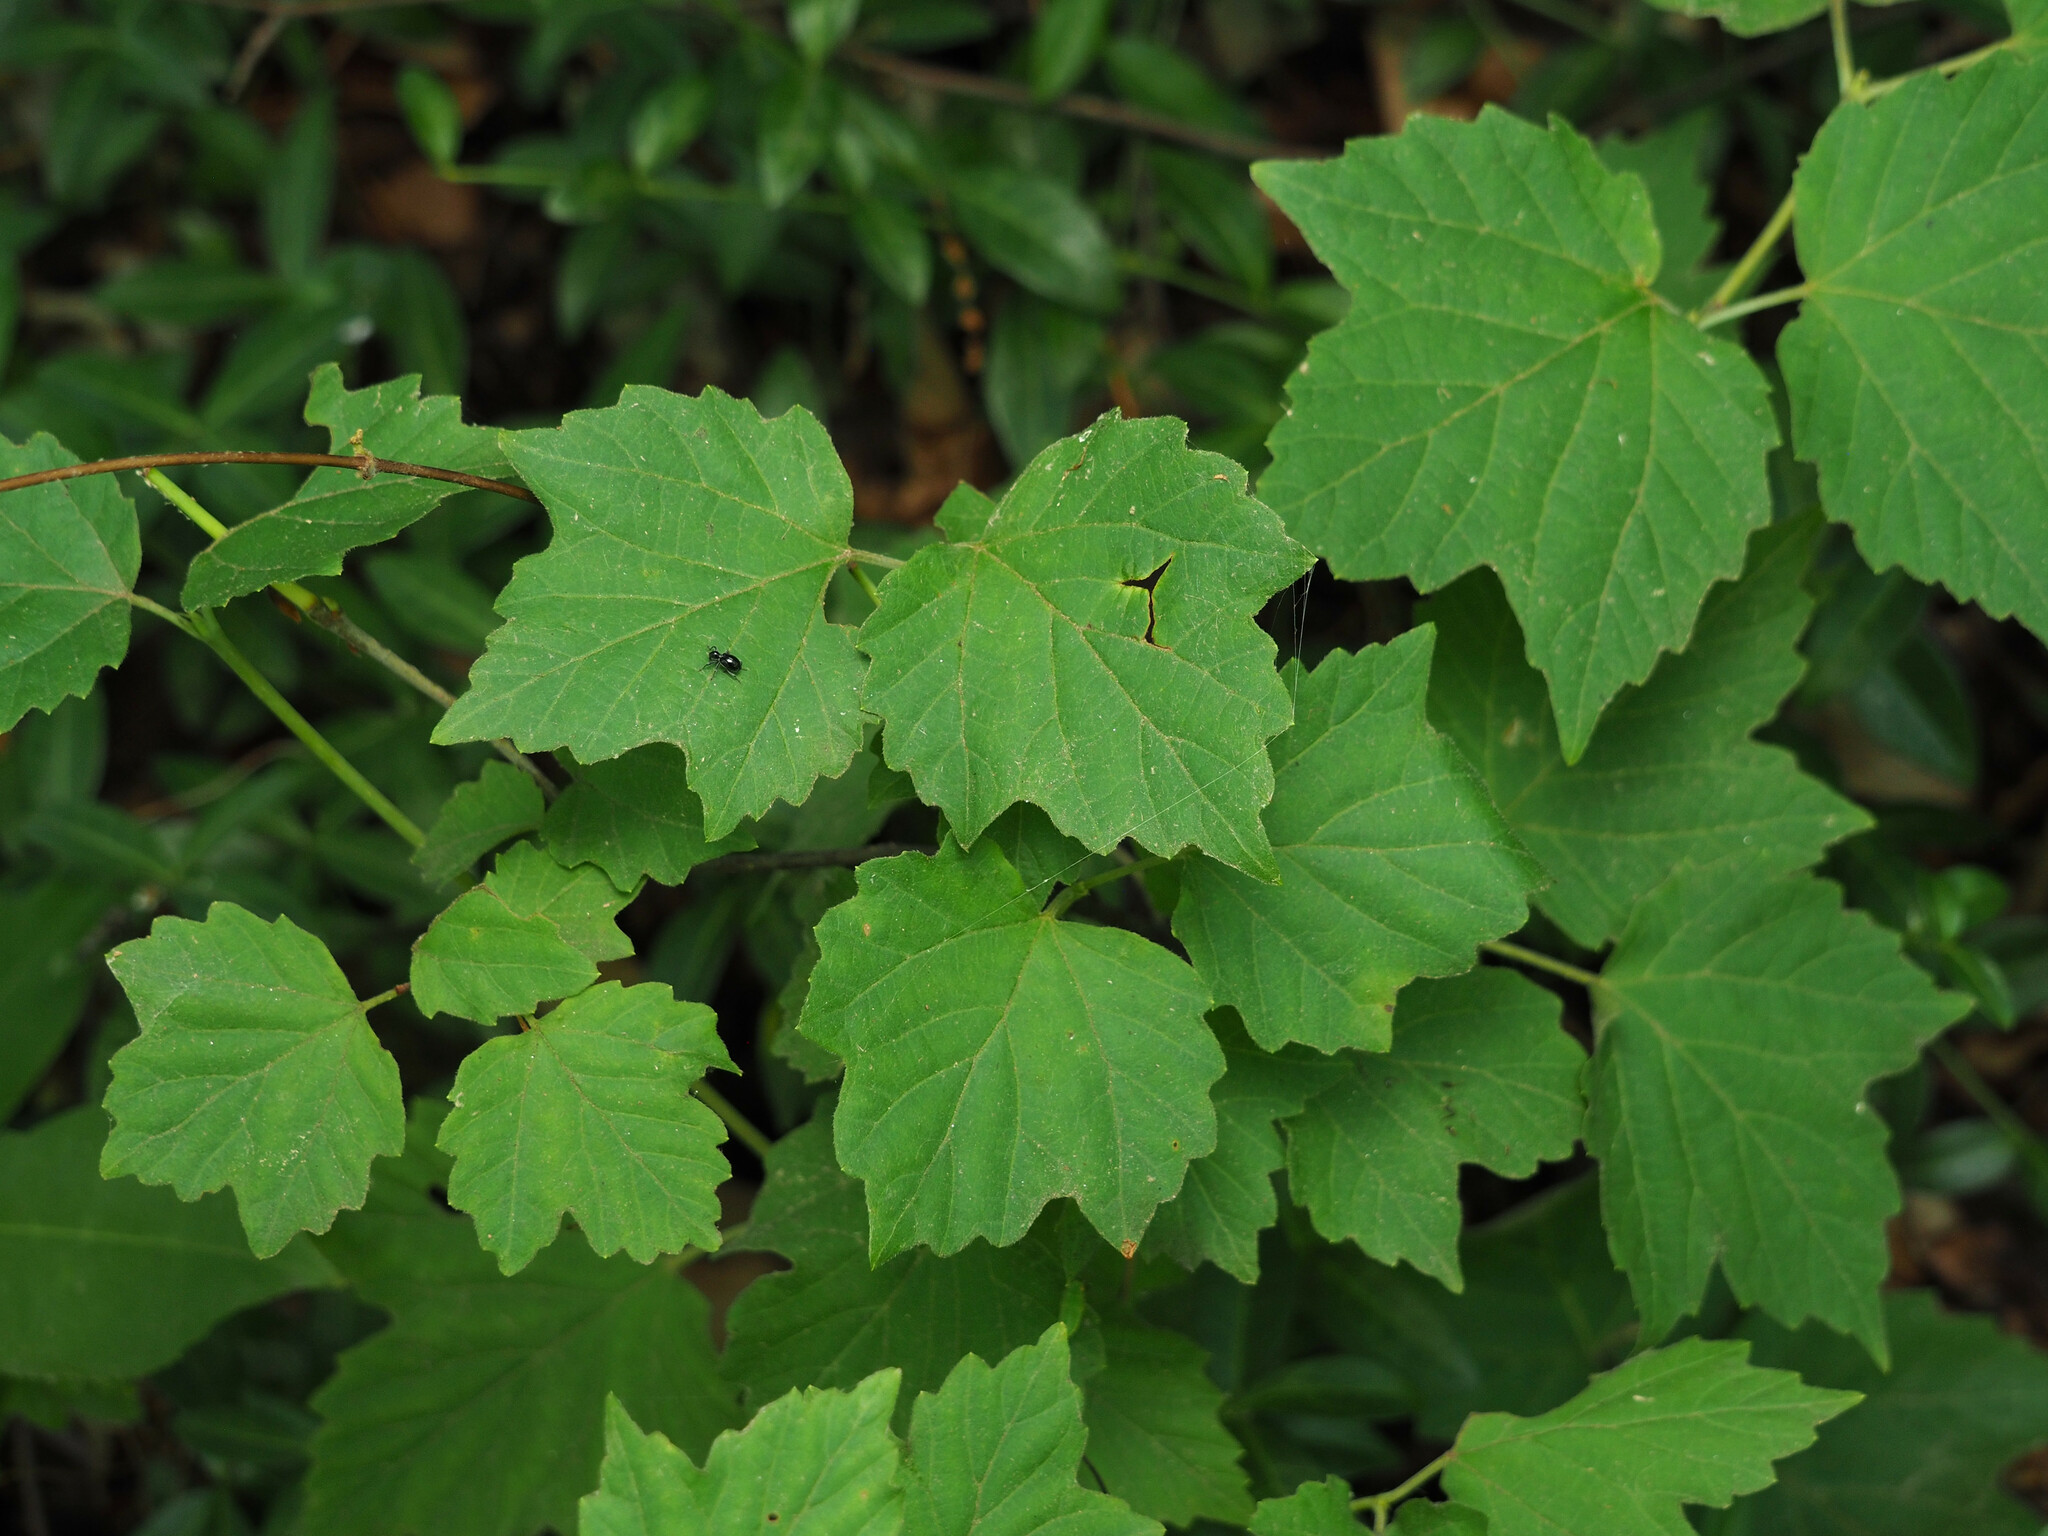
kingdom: Plantae
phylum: Tracheophyta
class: Magnoliopsida
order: Dipsacales
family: Viburnaceae
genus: Viburnum
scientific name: Viburnum acerifolium
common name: Dockmackie
